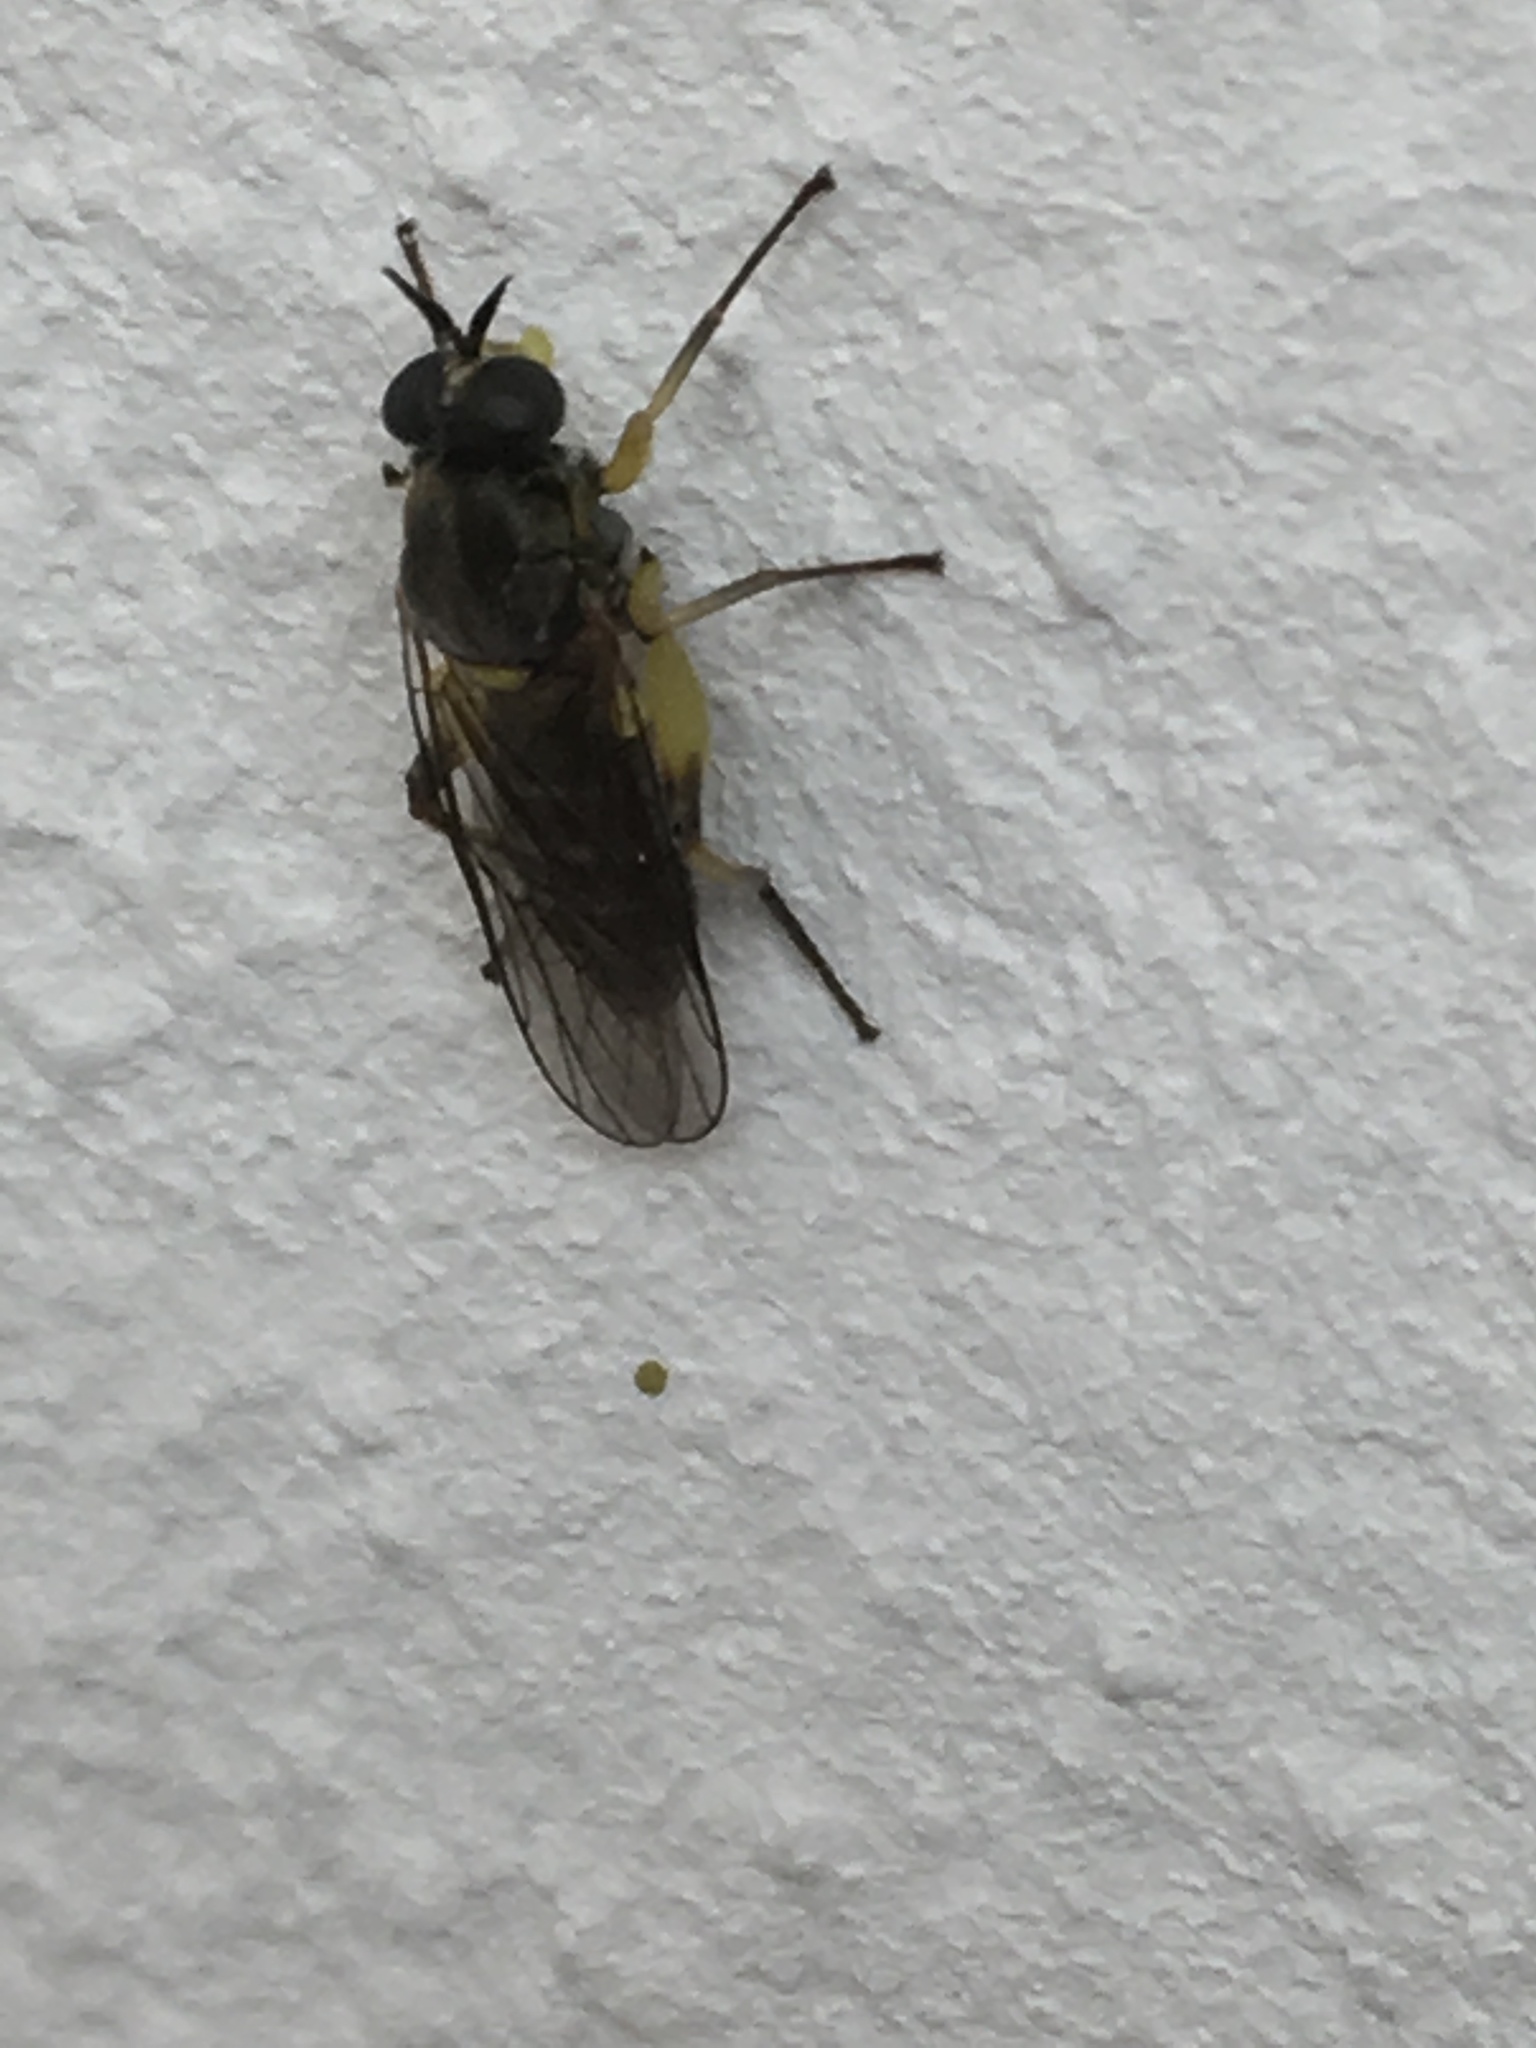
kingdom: Animalia
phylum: Arthropoda
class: Insecta
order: Diptera
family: Xylomyidae
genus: Solva
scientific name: Solva marginata
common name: Drab wood-soldierfly
